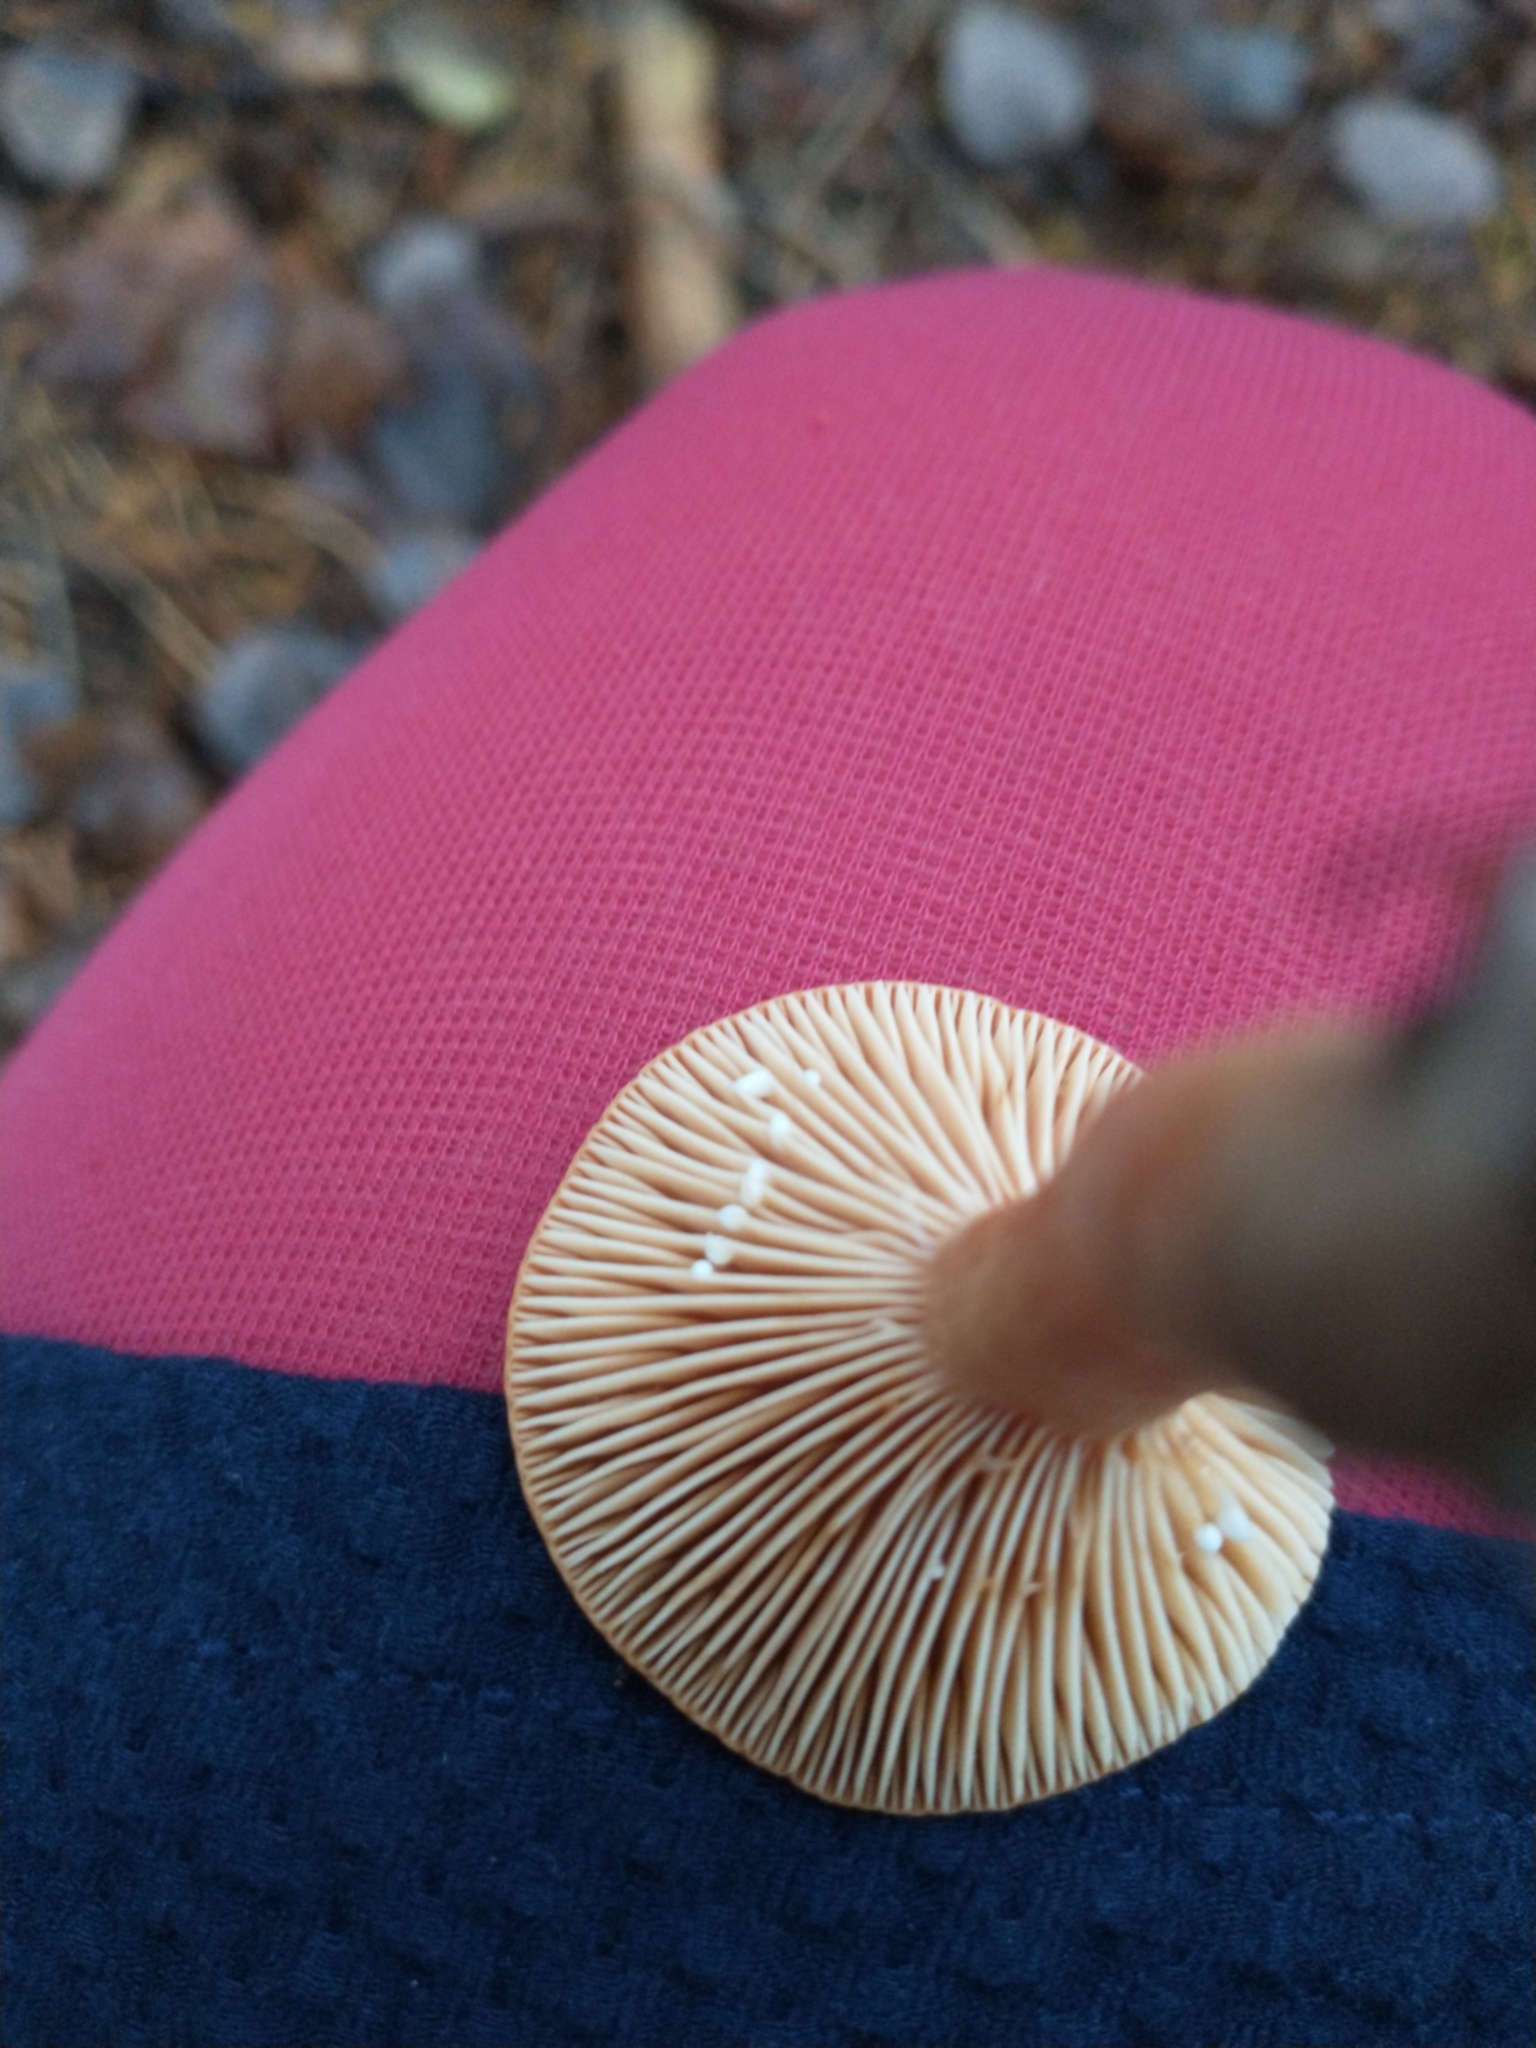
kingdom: Fungi
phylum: Basidiomycota
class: Agaricomycetes
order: Russulales
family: Russulaceae
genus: Lactarius
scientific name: Lactarius aurantiacus
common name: Orange milkcap
